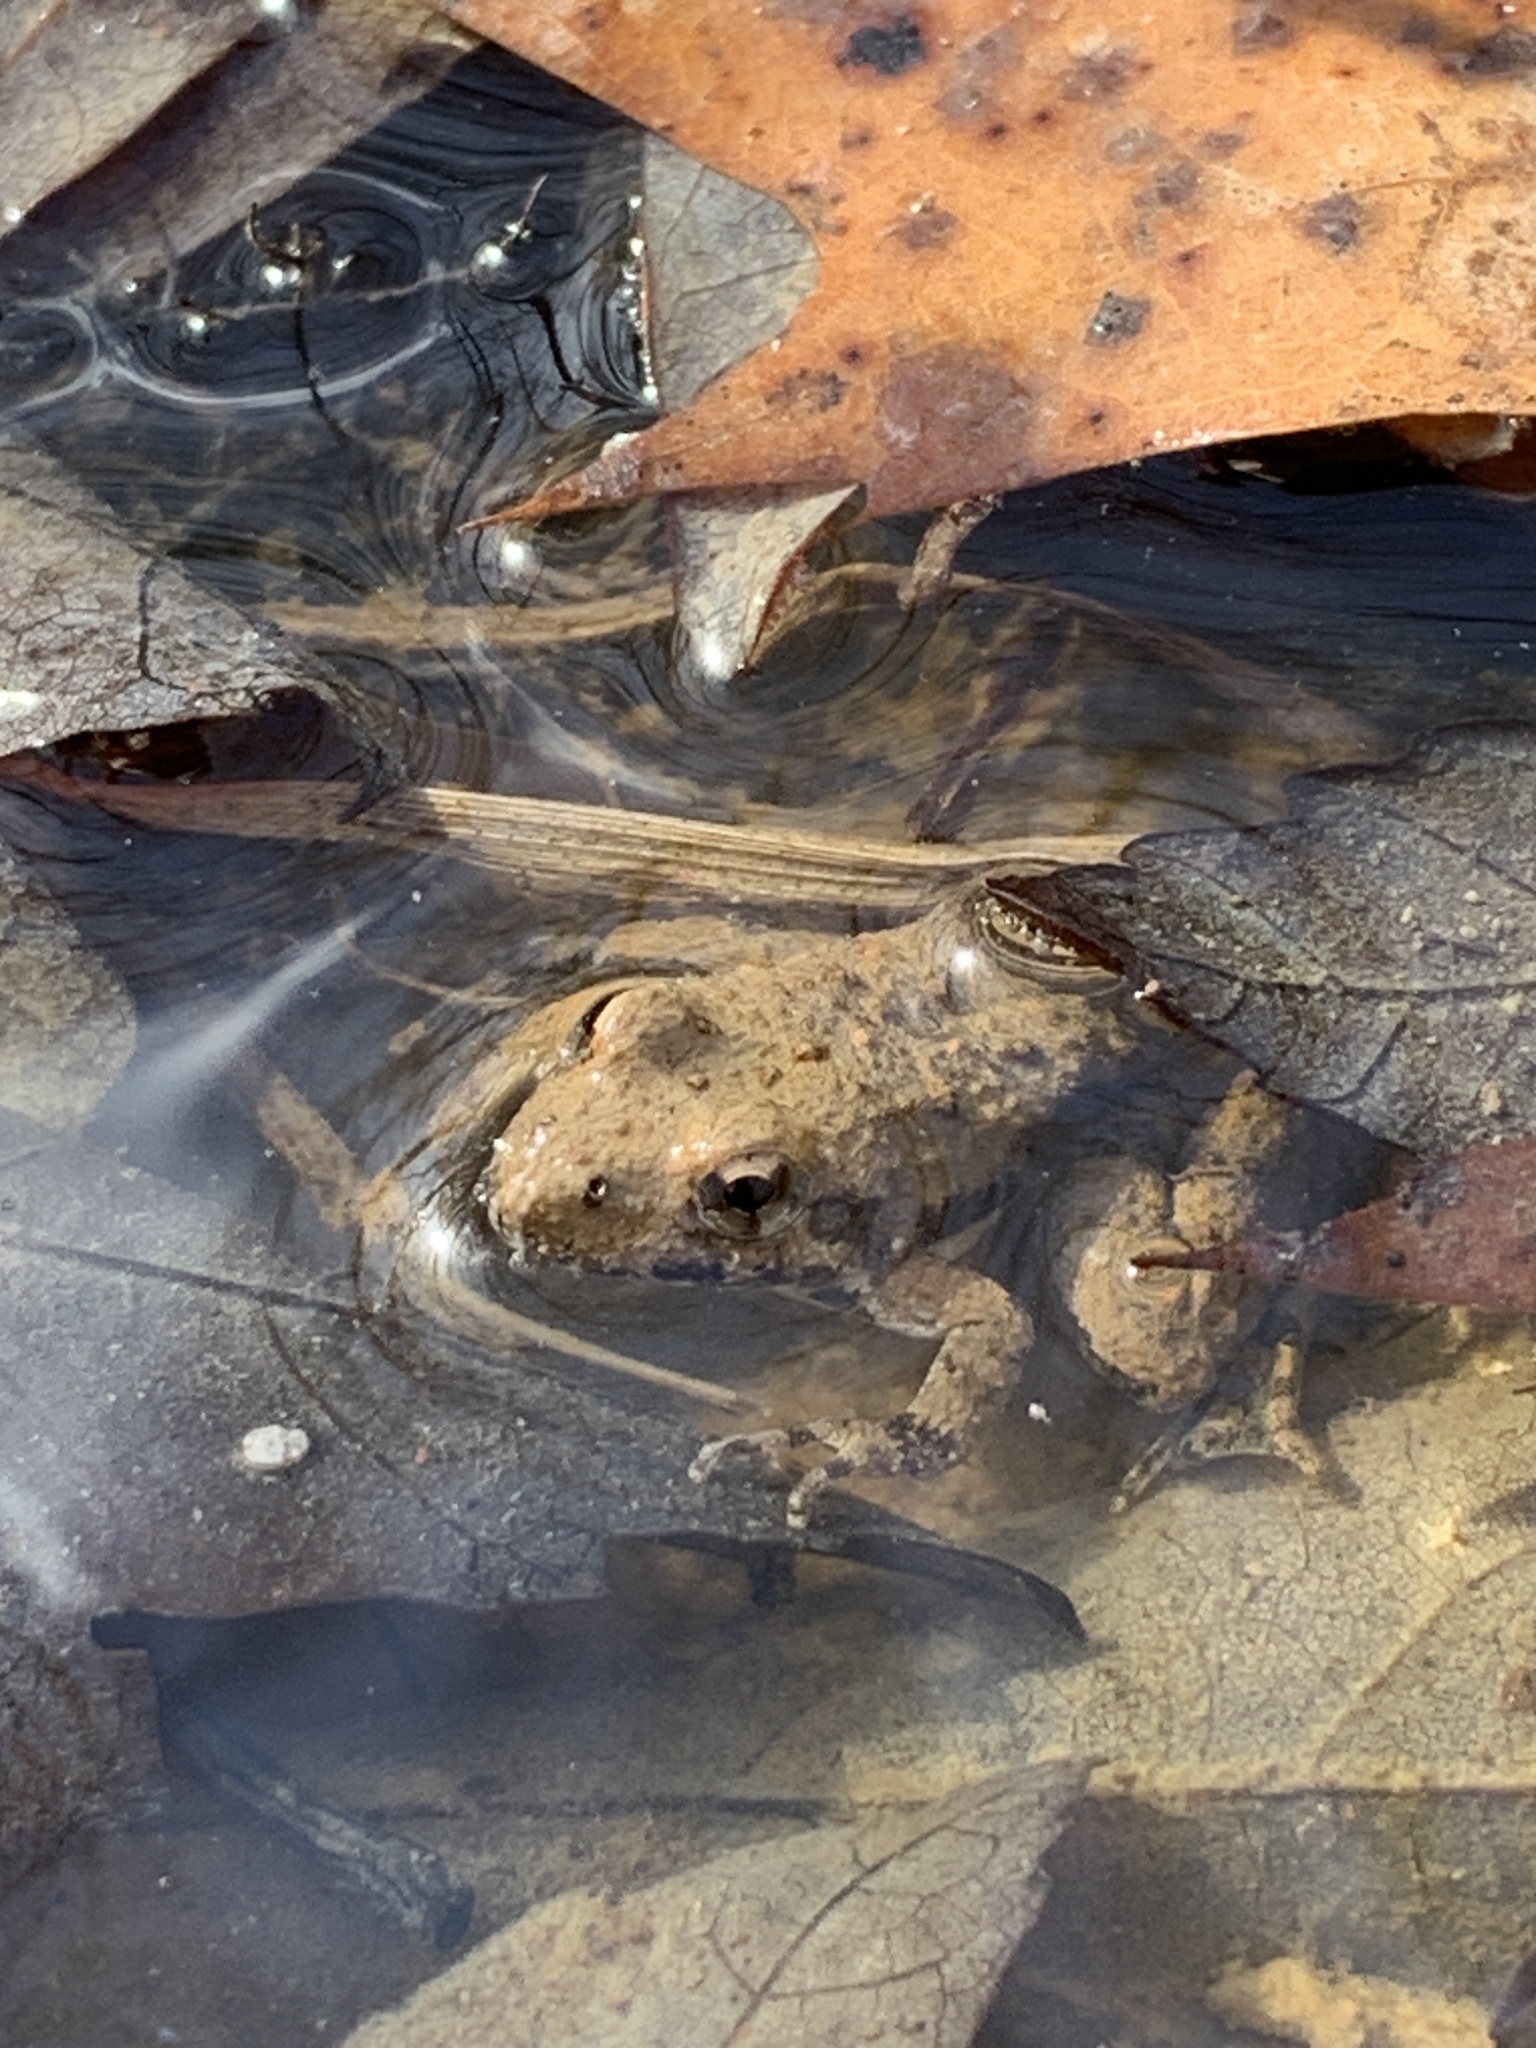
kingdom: Animalia
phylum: Chordata
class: Amphibia
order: Anura
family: Hylidae
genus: Acris
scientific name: Acris blanchardi
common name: Blanchard's cricket frog
